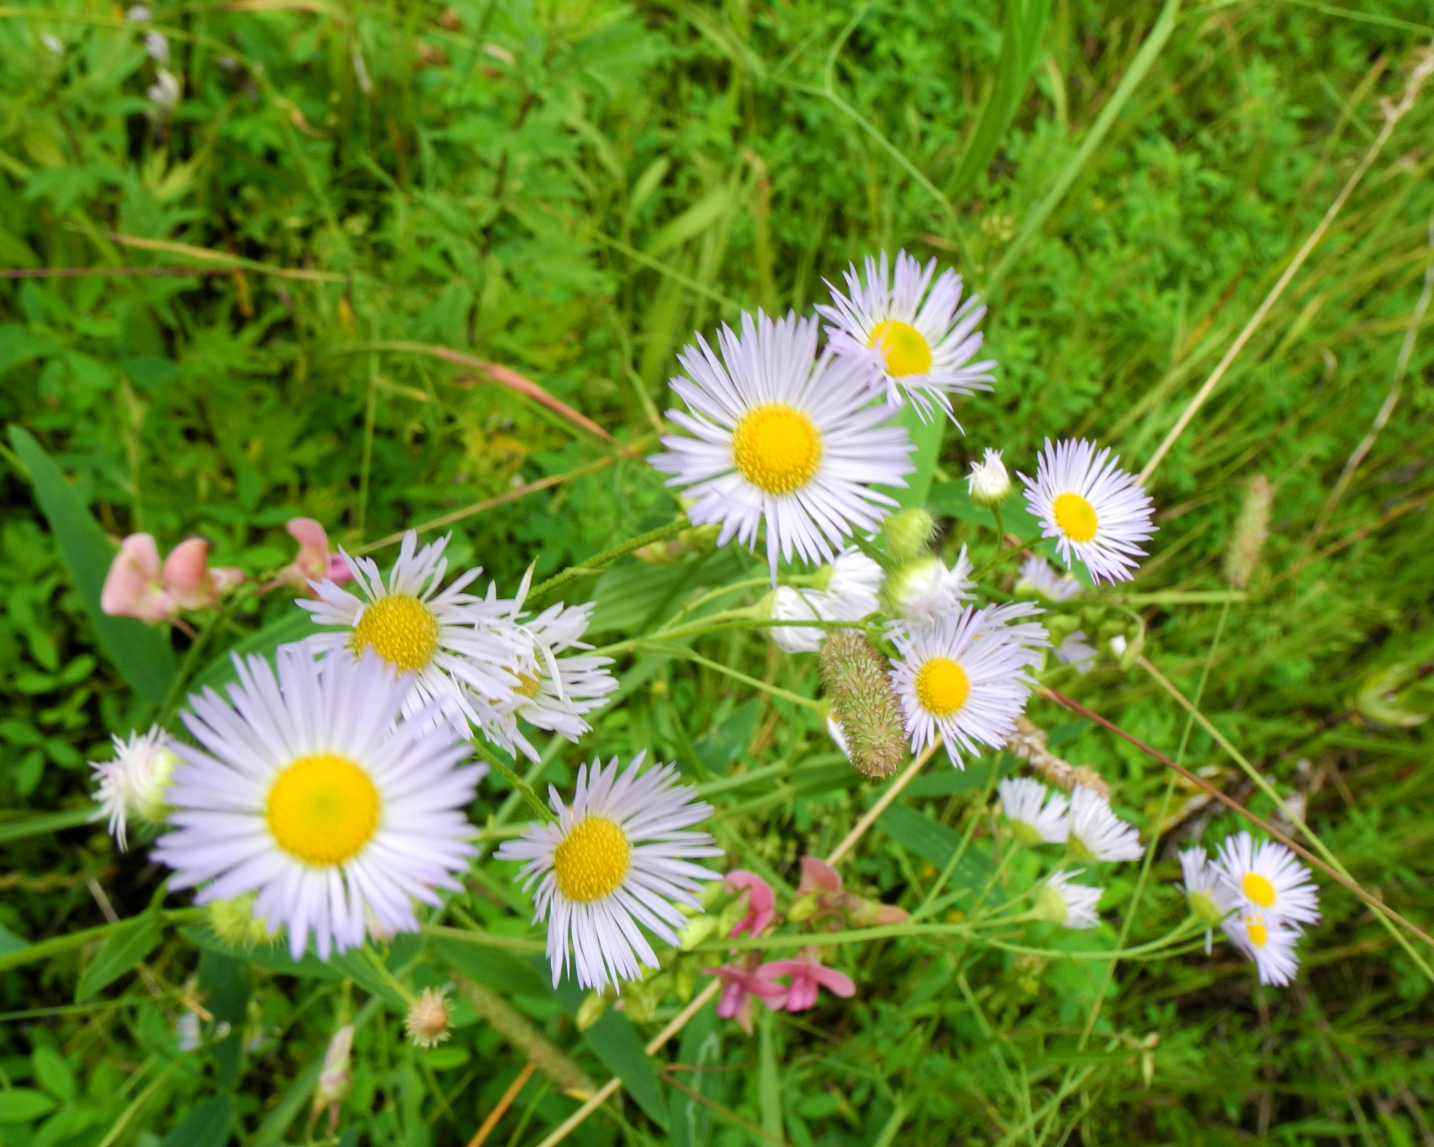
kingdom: Plantae
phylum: Tracheophyta
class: Magnoliopsida
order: Asterales
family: Asteraceae
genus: Erigeron
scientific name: Erigeron annuus
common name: Tall fleabane
